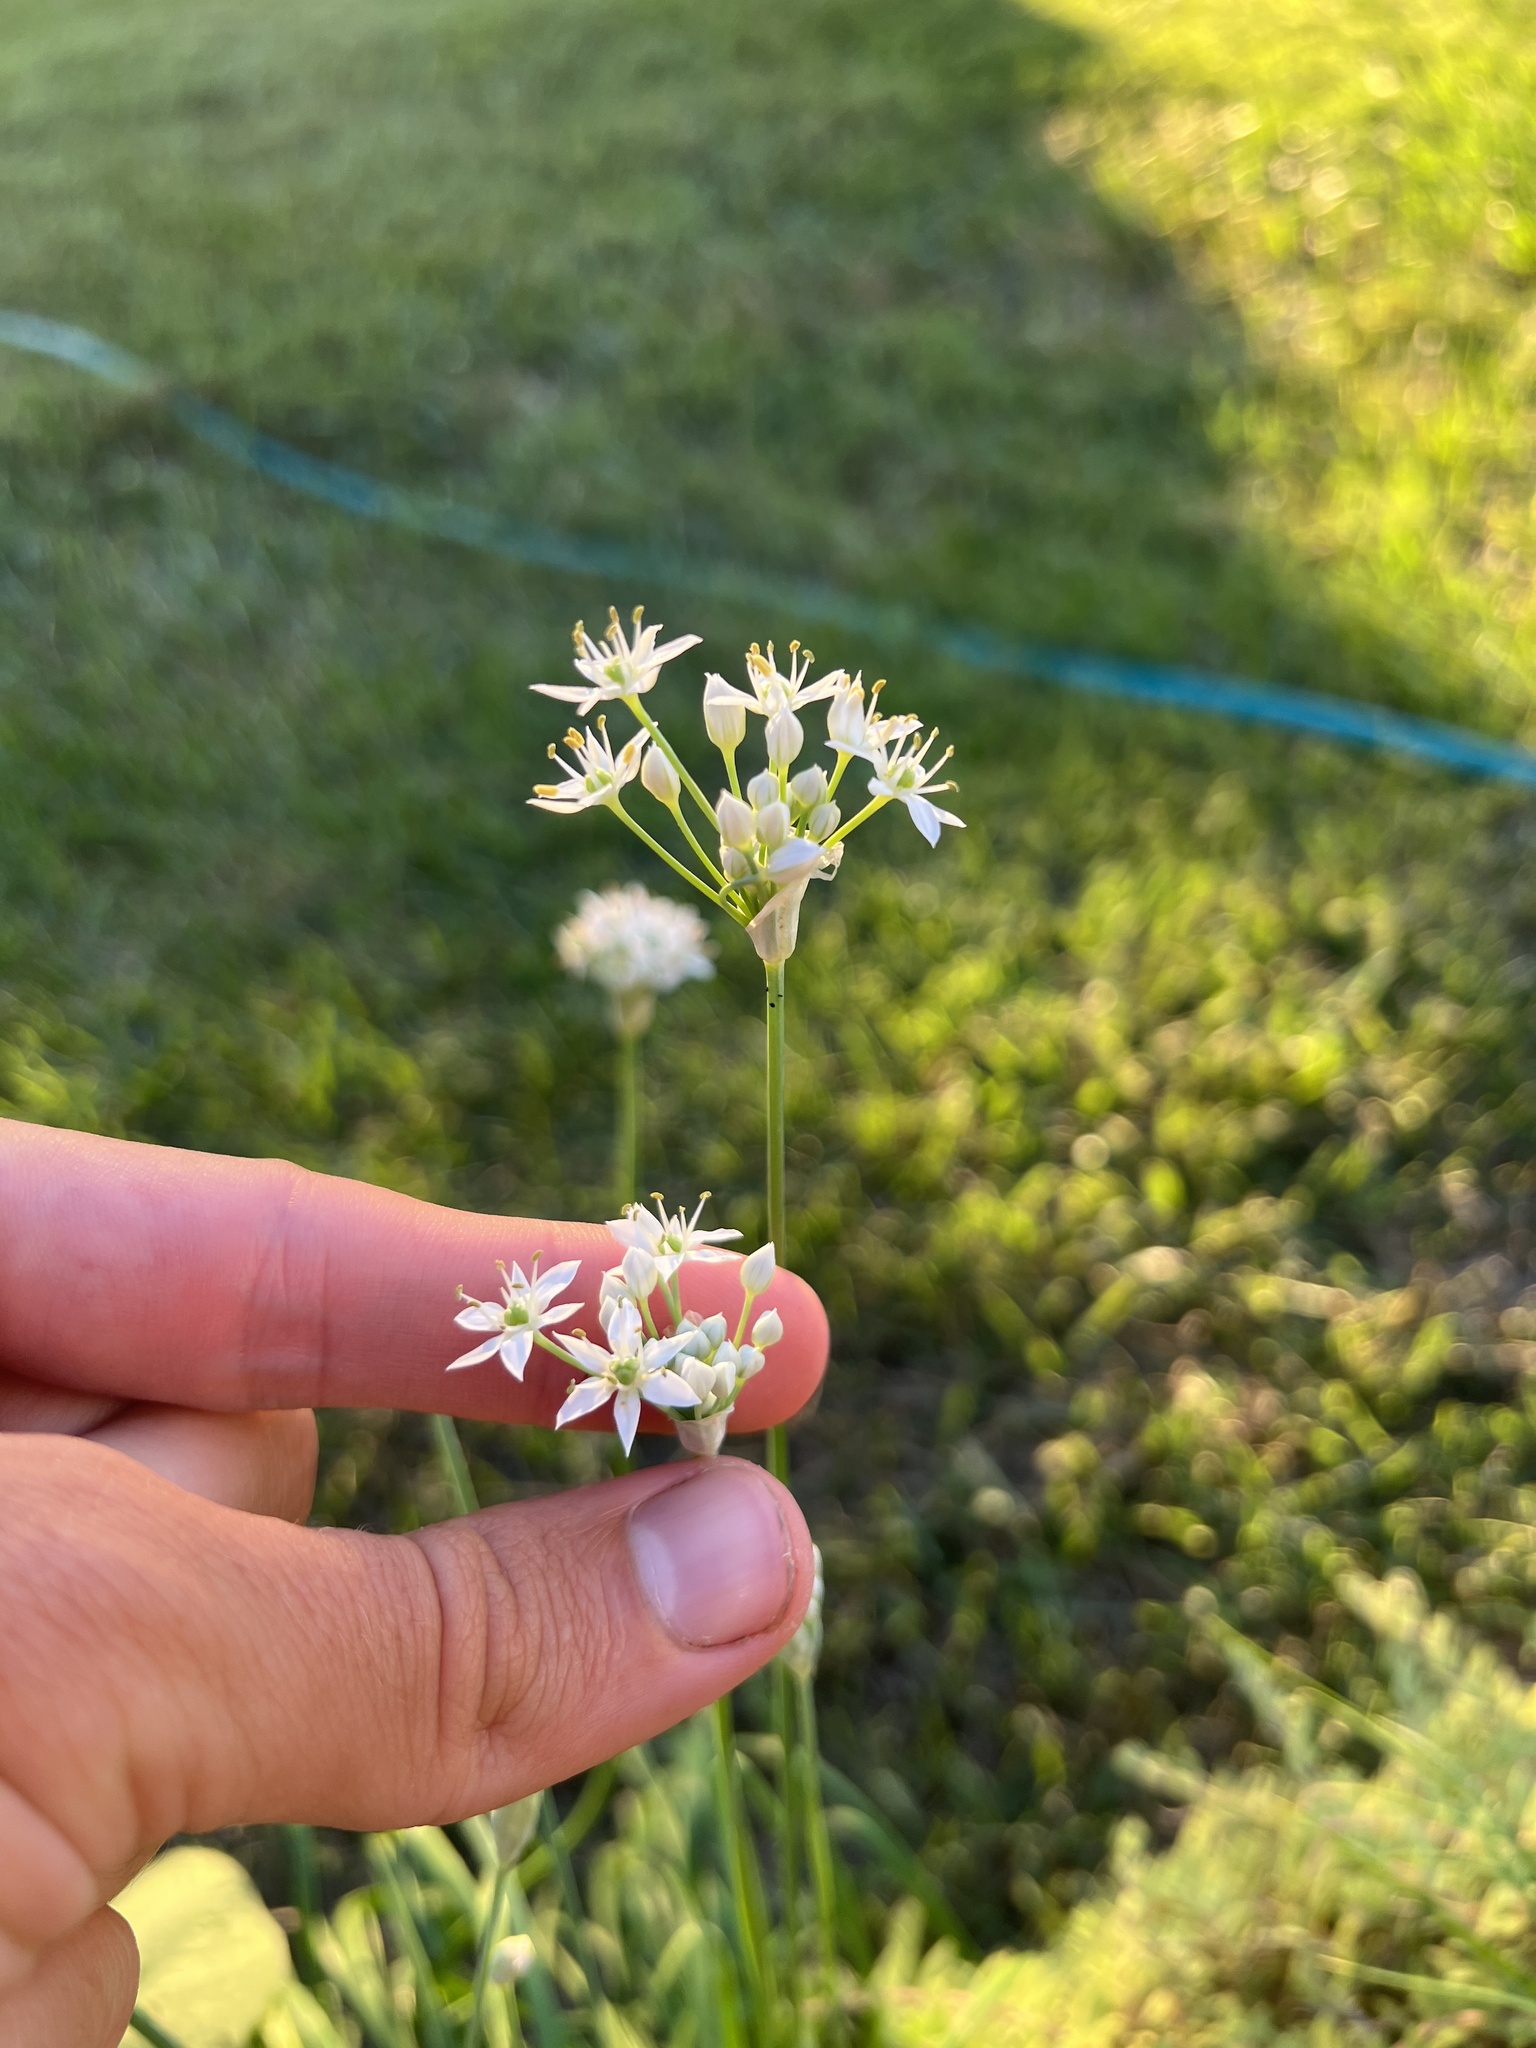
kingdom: Plantae
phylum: Tracheophyta
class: Liliopsida
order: Asparagales
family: Amaryllidaceae
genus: Allium
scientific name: Allium tuberosum
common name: Chinese chives
